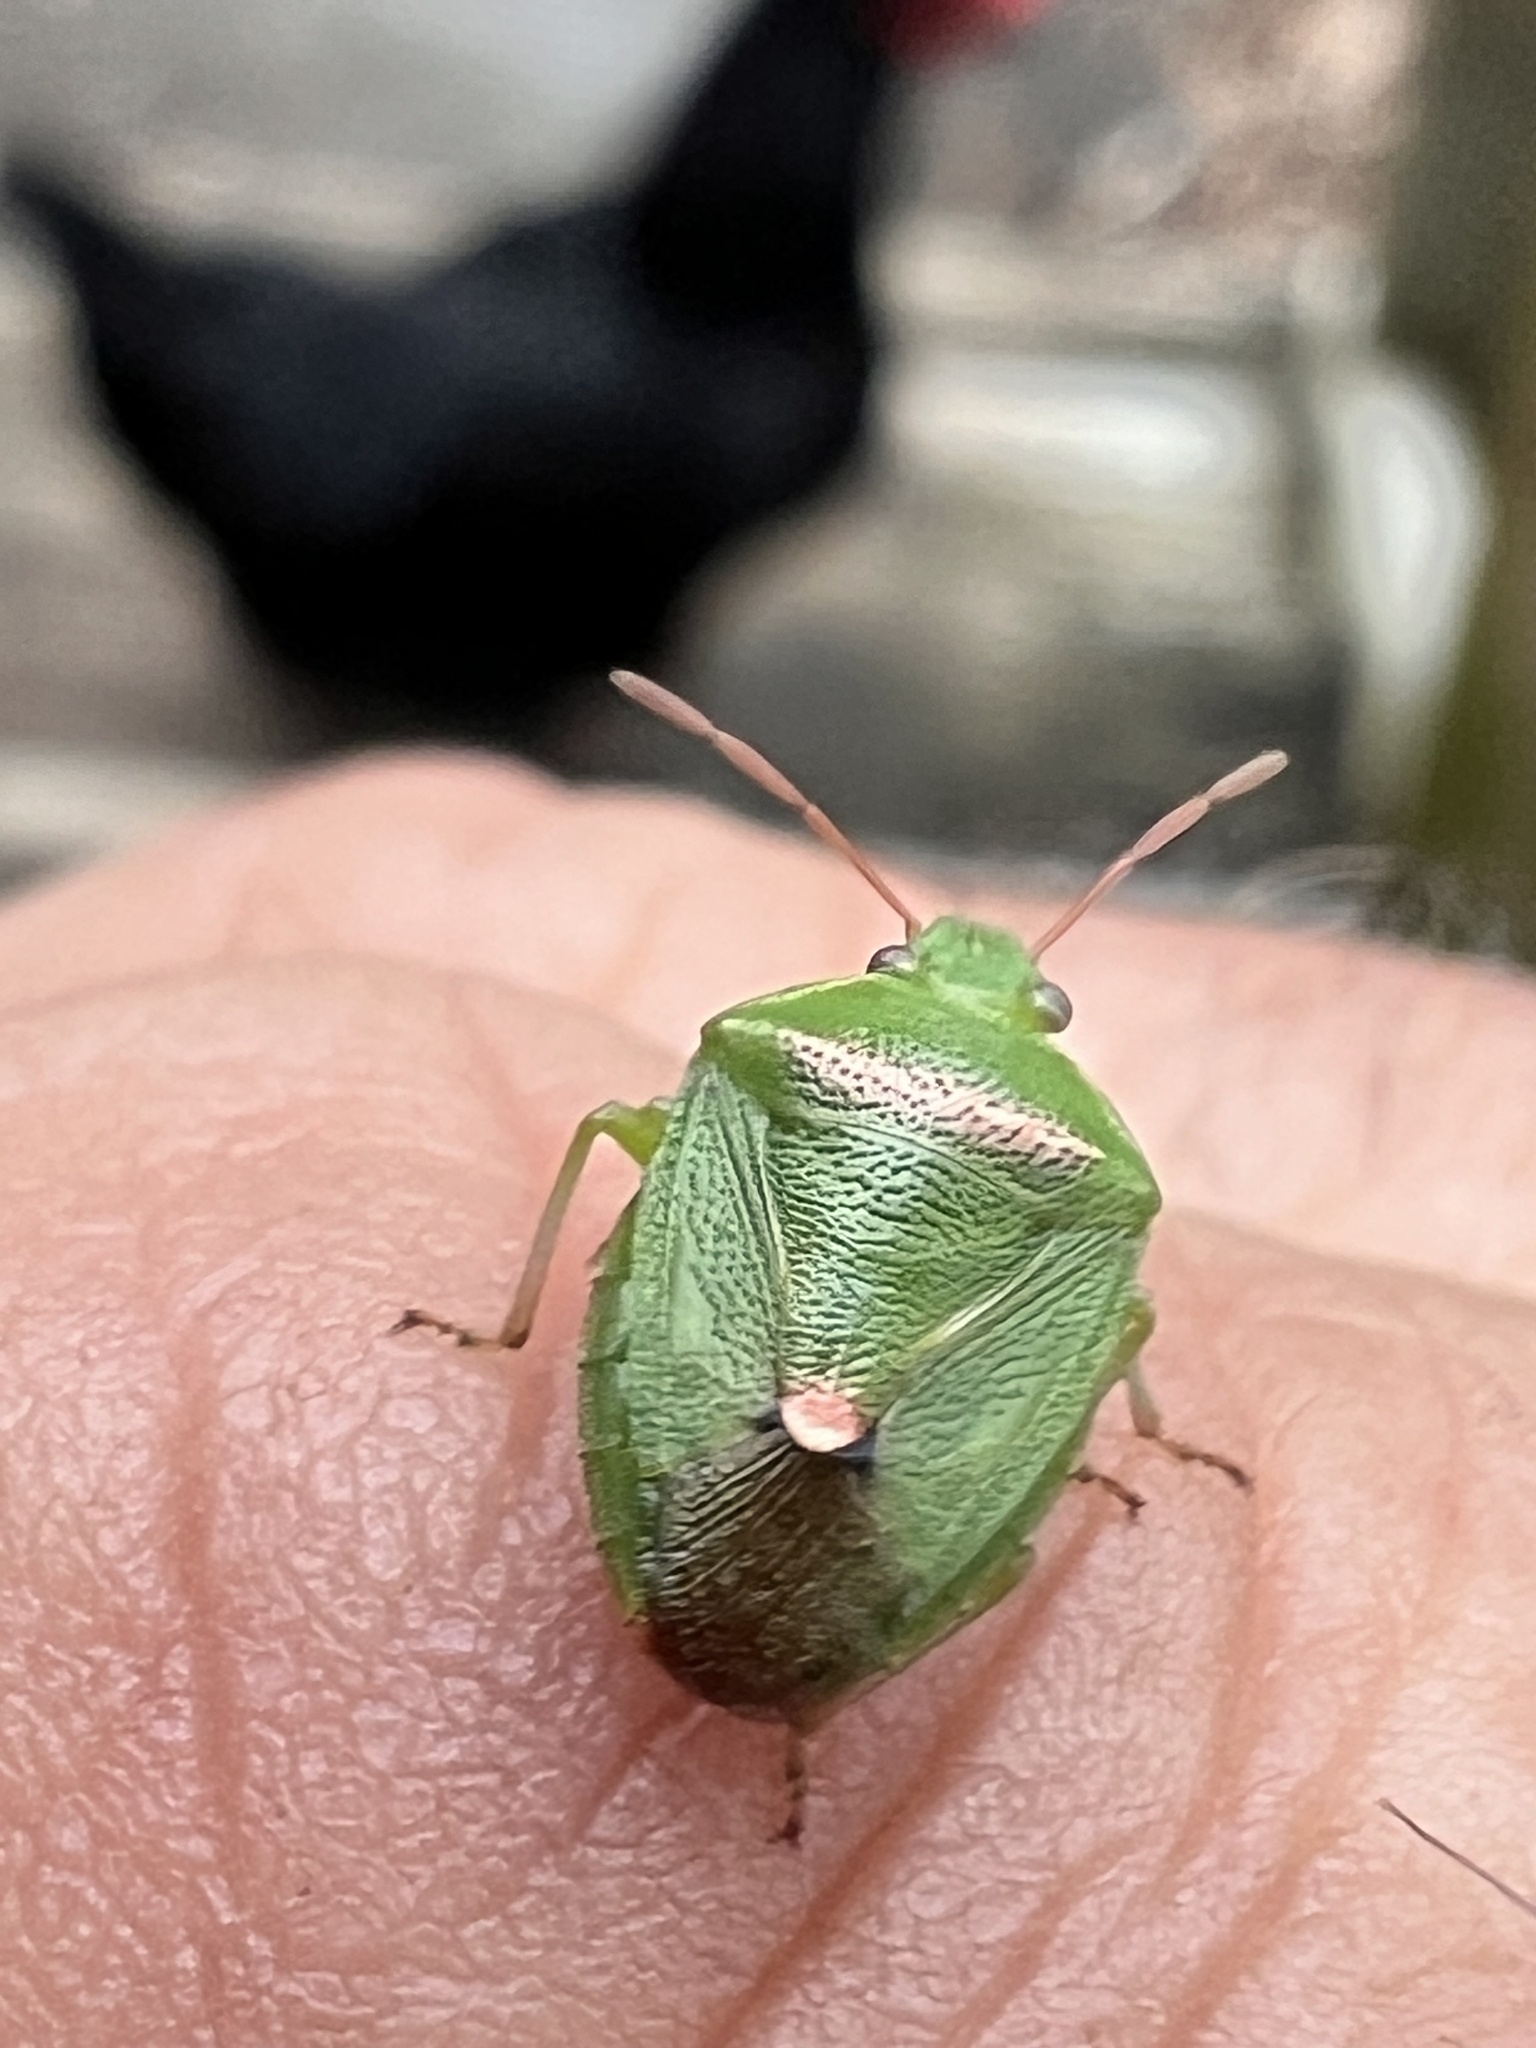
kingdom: Animalia
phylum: Arthropoda
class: Insecta
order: Hemiptera
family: Pentatomidae
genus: Ocirrhoe
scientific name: Ocirrhoe
